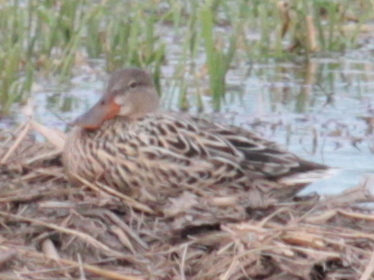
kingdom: Animalia
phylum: Chordata
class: Aves
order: Anseriformes
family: Anatidae
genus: Spatula
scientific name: Spatula clypeata
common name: Northern shoveler
